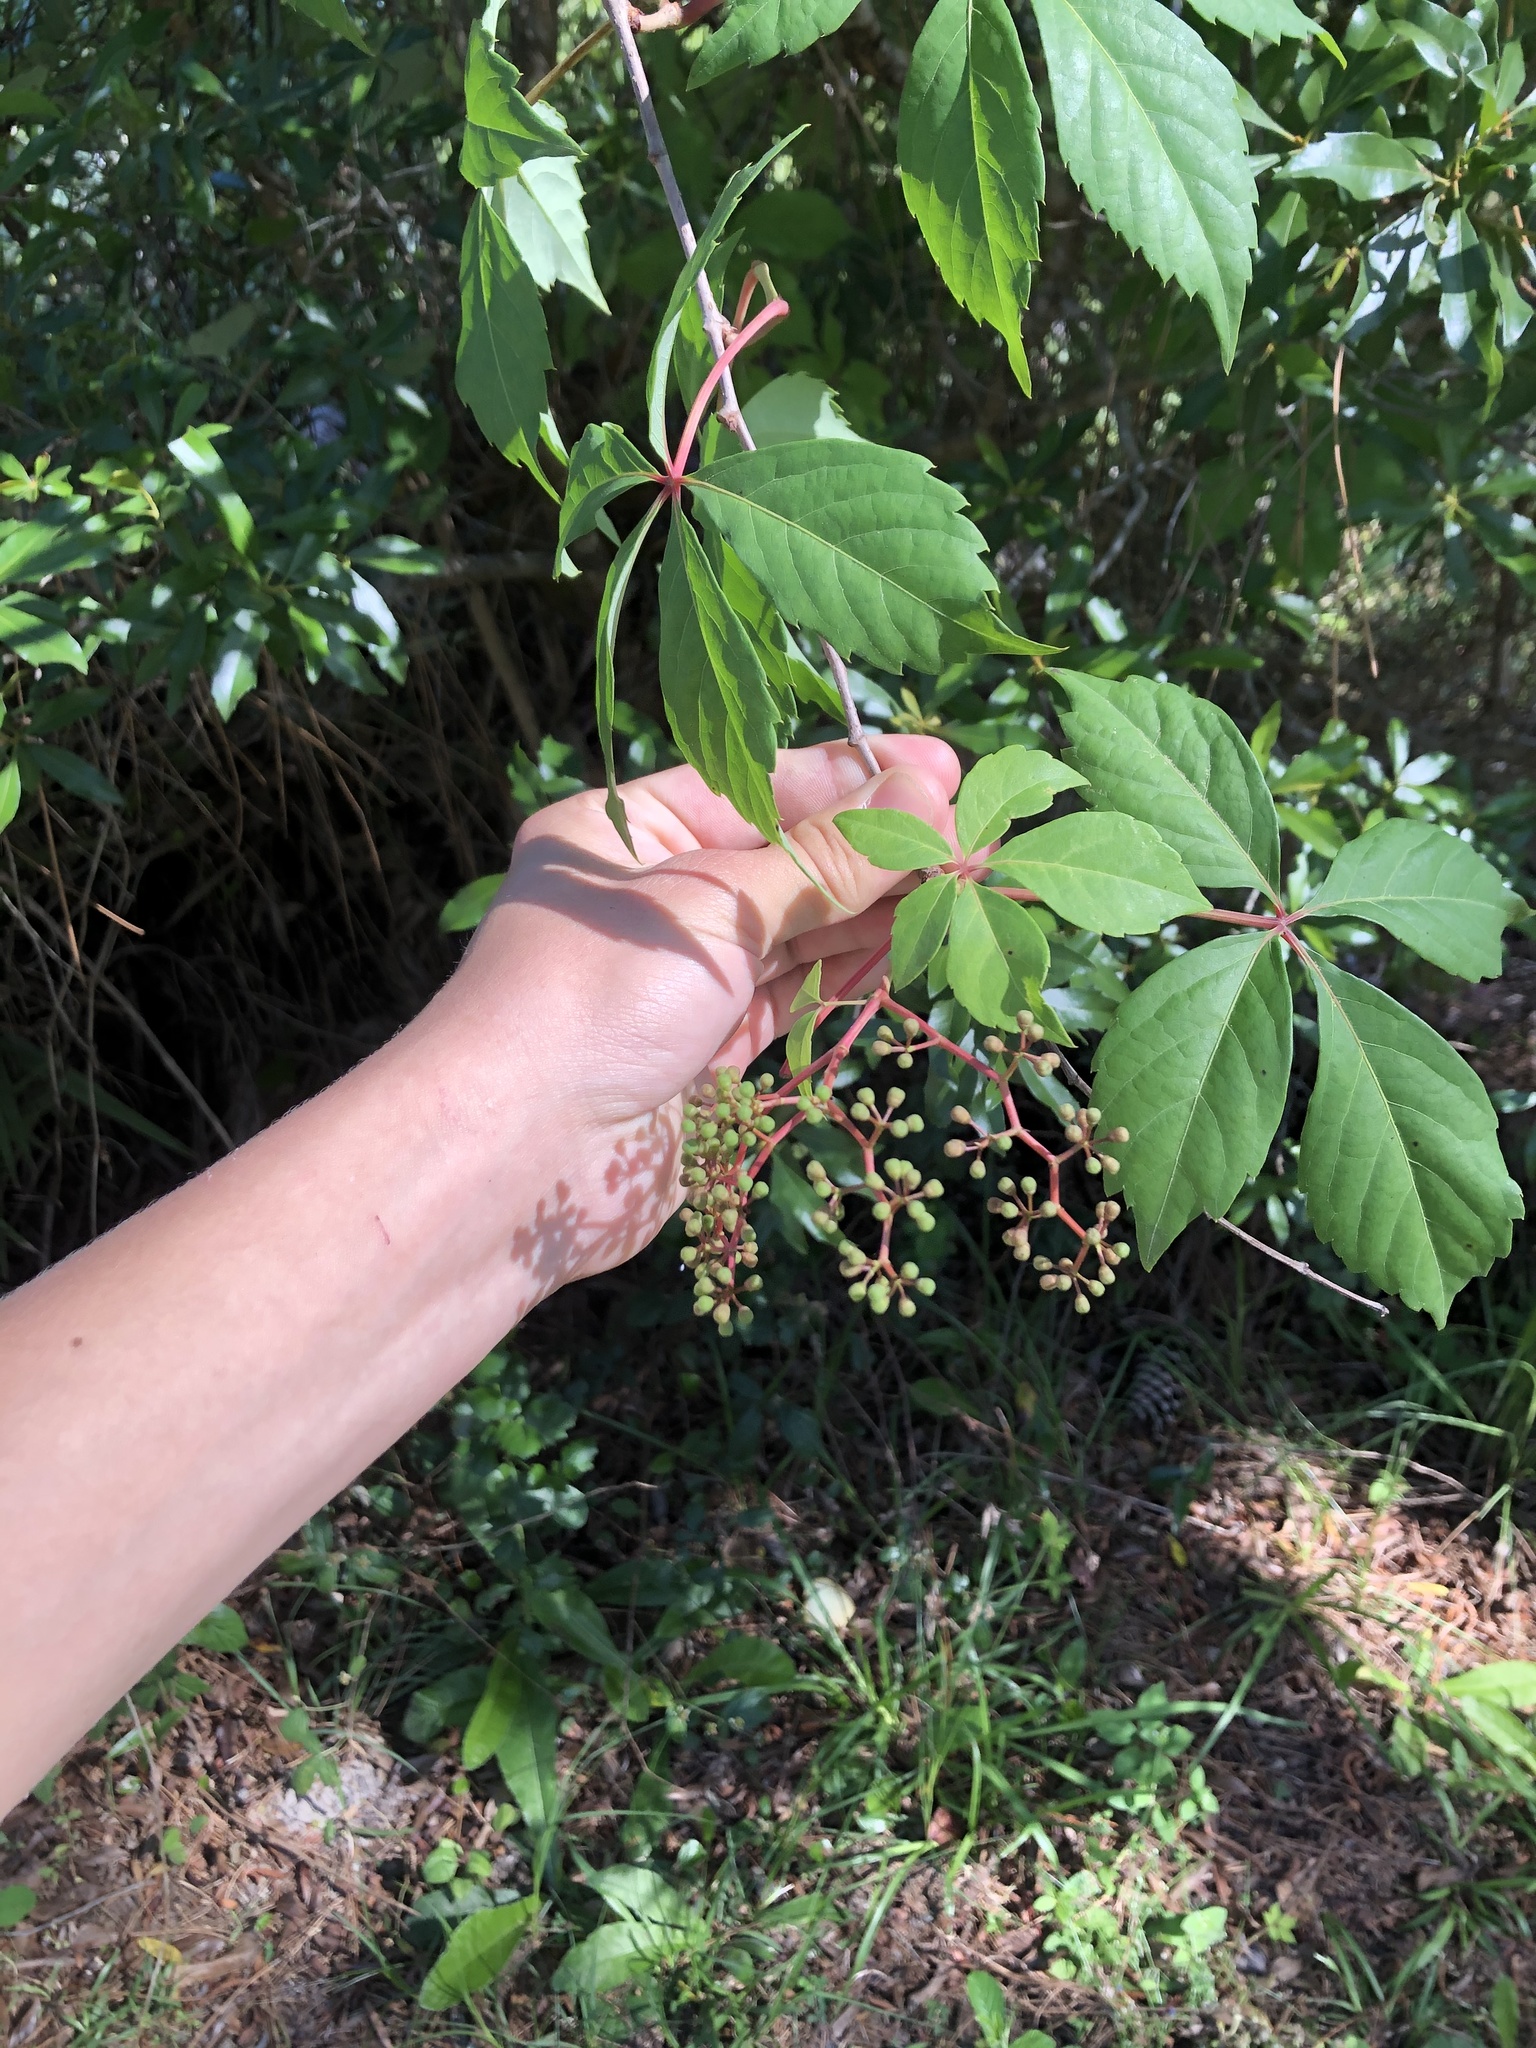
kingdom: Plantae
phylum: Tracheophyta
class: Magnoliopsida
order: Vitales
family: Vitaceae
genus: Parthenocissus
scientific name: Parthenocissus quinquefolia
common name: Virginia-creeper
